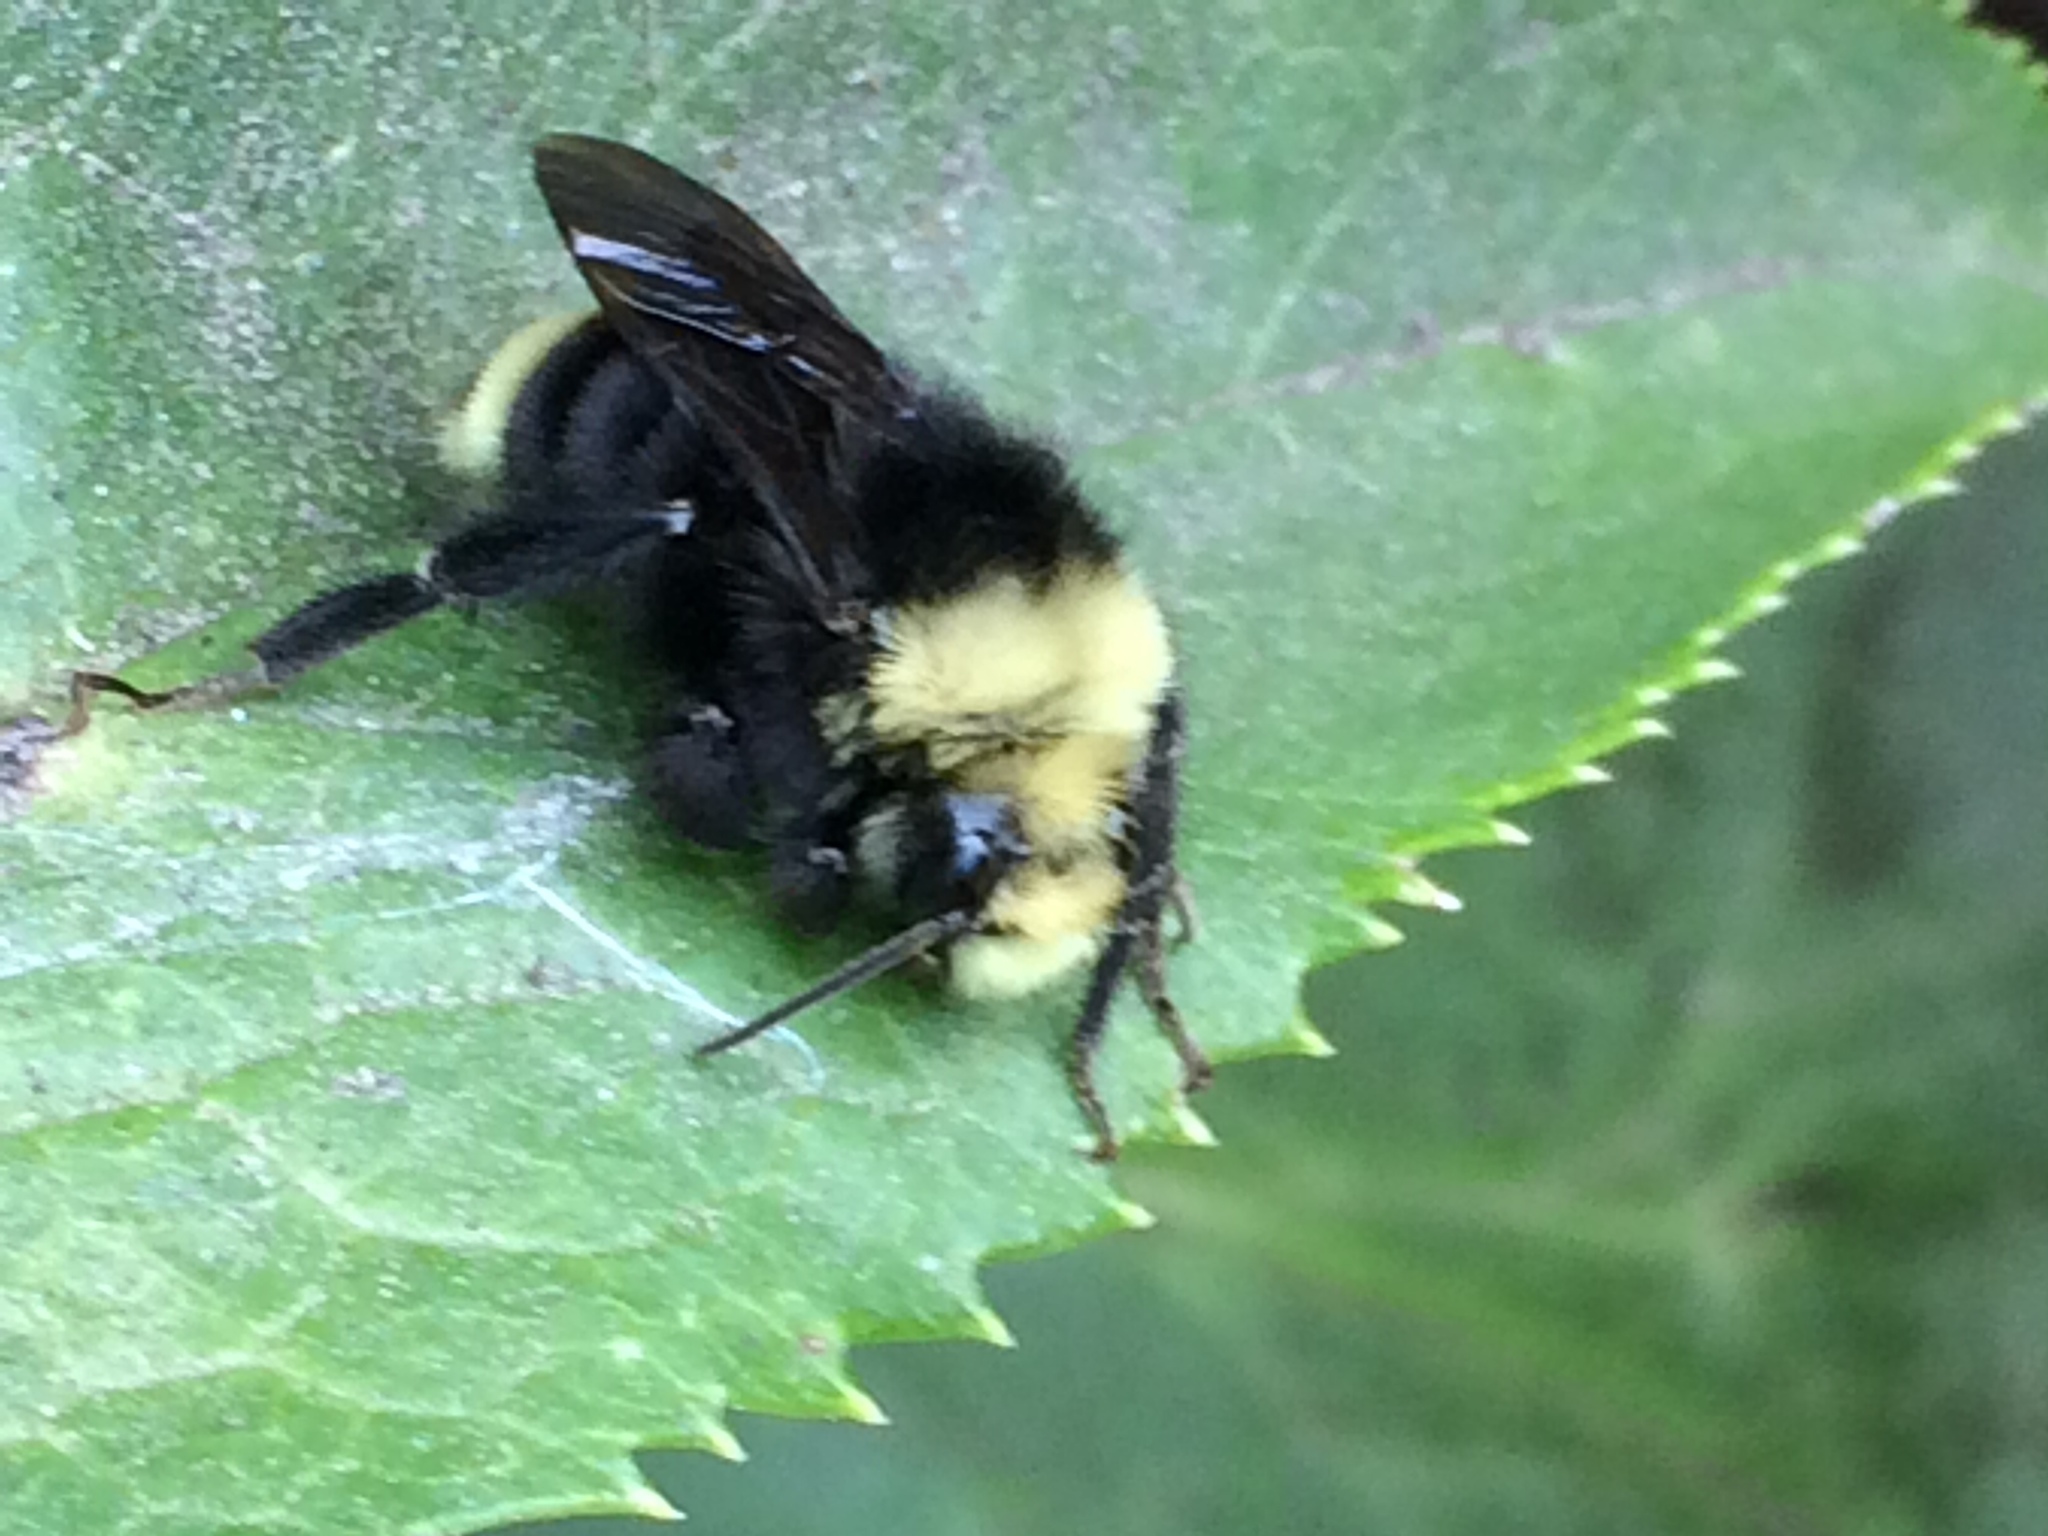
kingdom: Animalia
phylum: Arthropoda
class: Insecta
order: Hymenoptera
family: Apidae
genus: Bombus
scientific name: Bombus vosnesenskii
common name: Vosnesensky bumble bee
